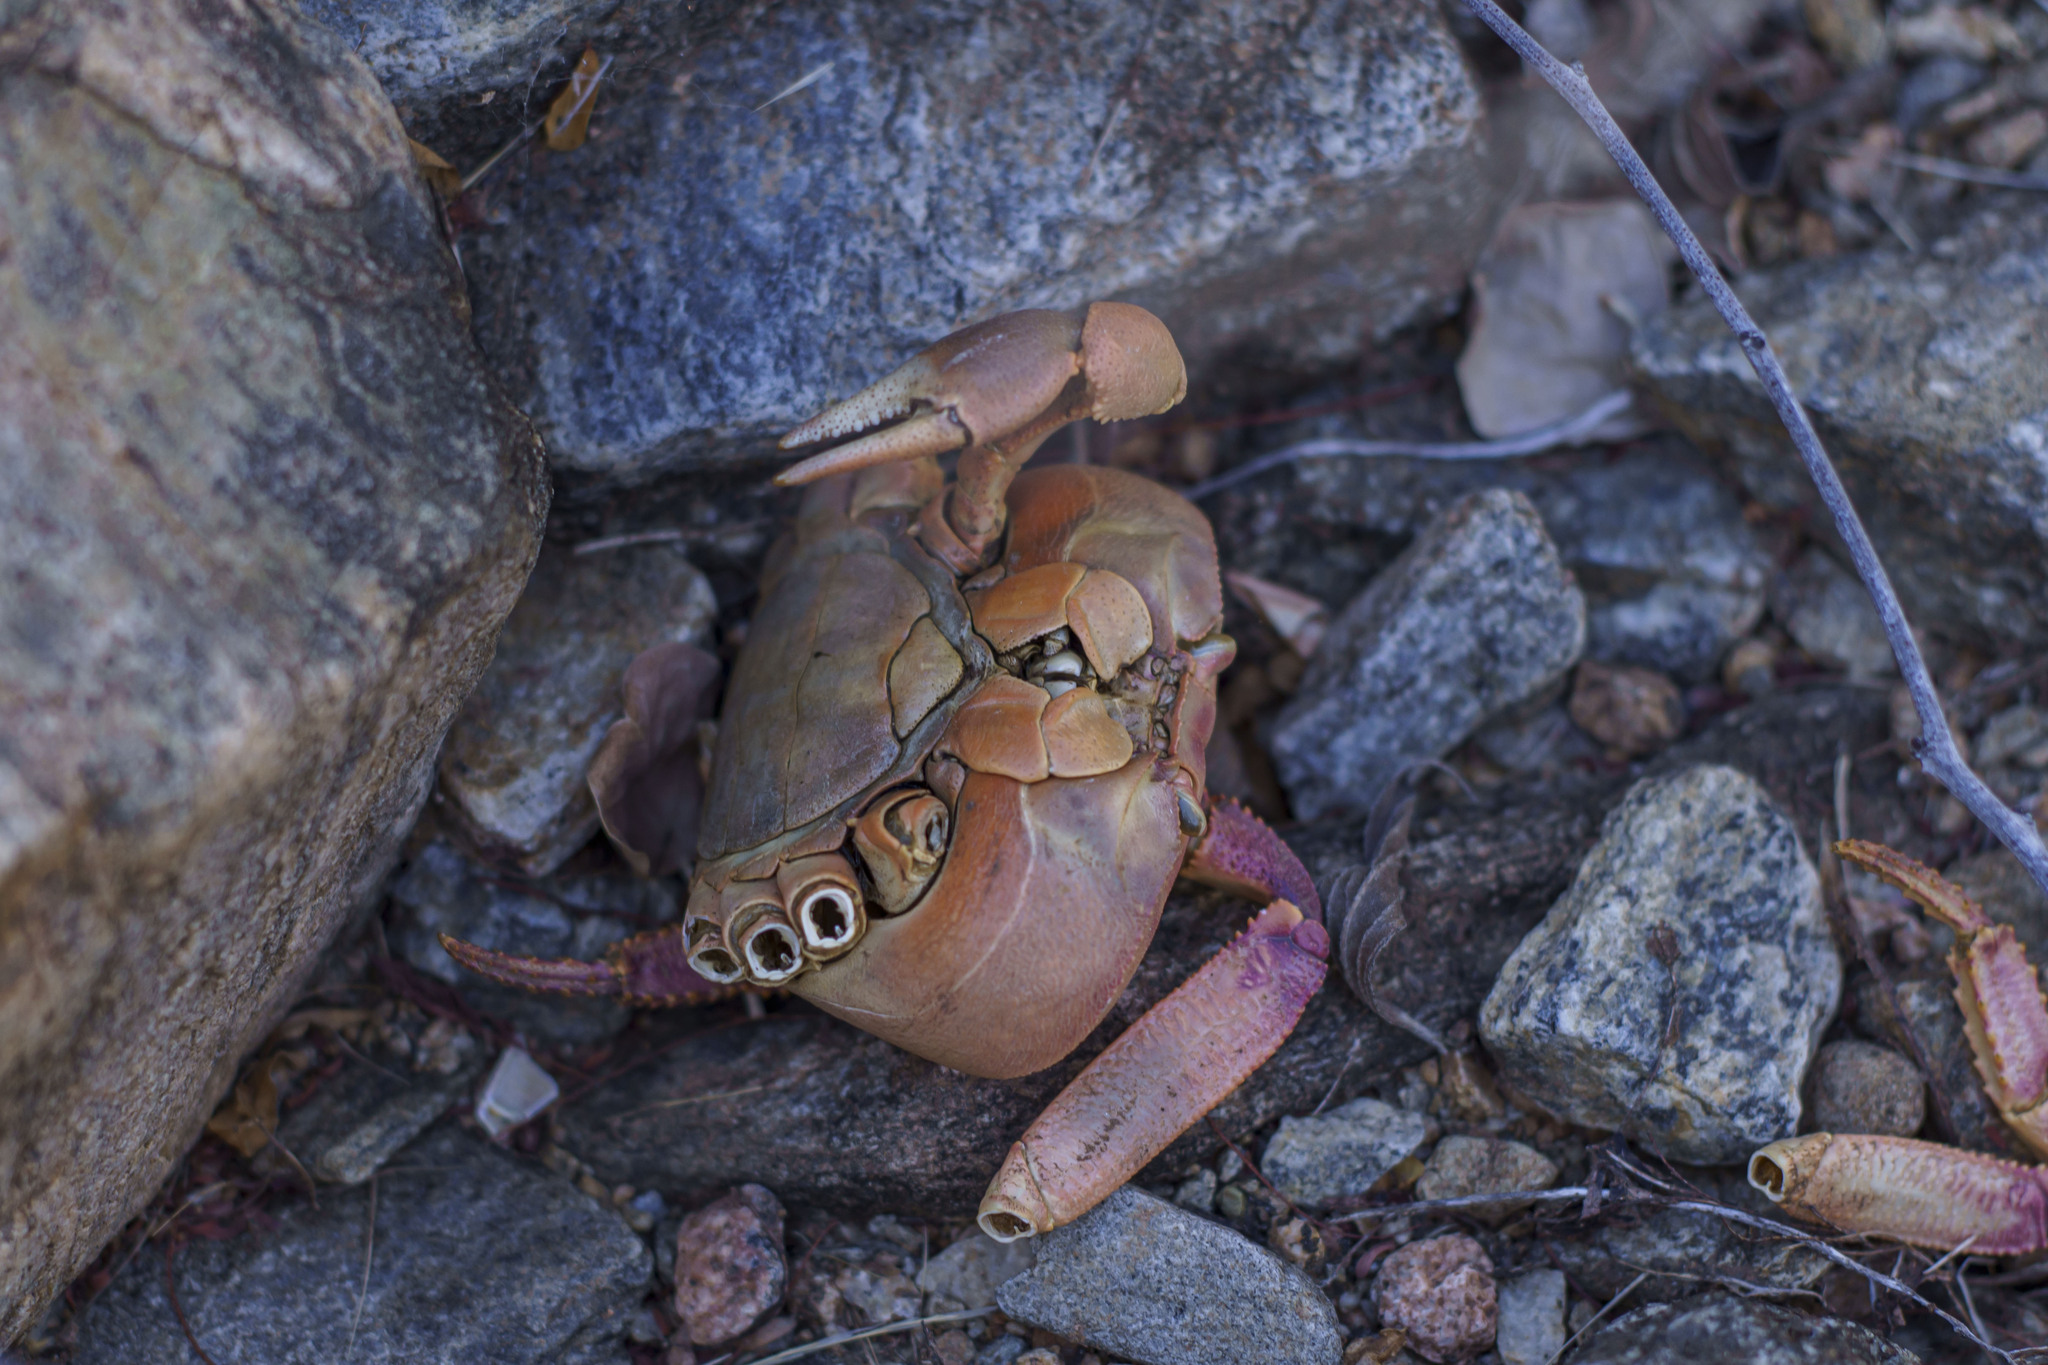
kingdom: Animalia
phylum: Arthropoda
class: Malacostraca
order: Decapoda
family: Gecarcinidae
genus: Johngarthia
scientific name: Johngarthia planata
